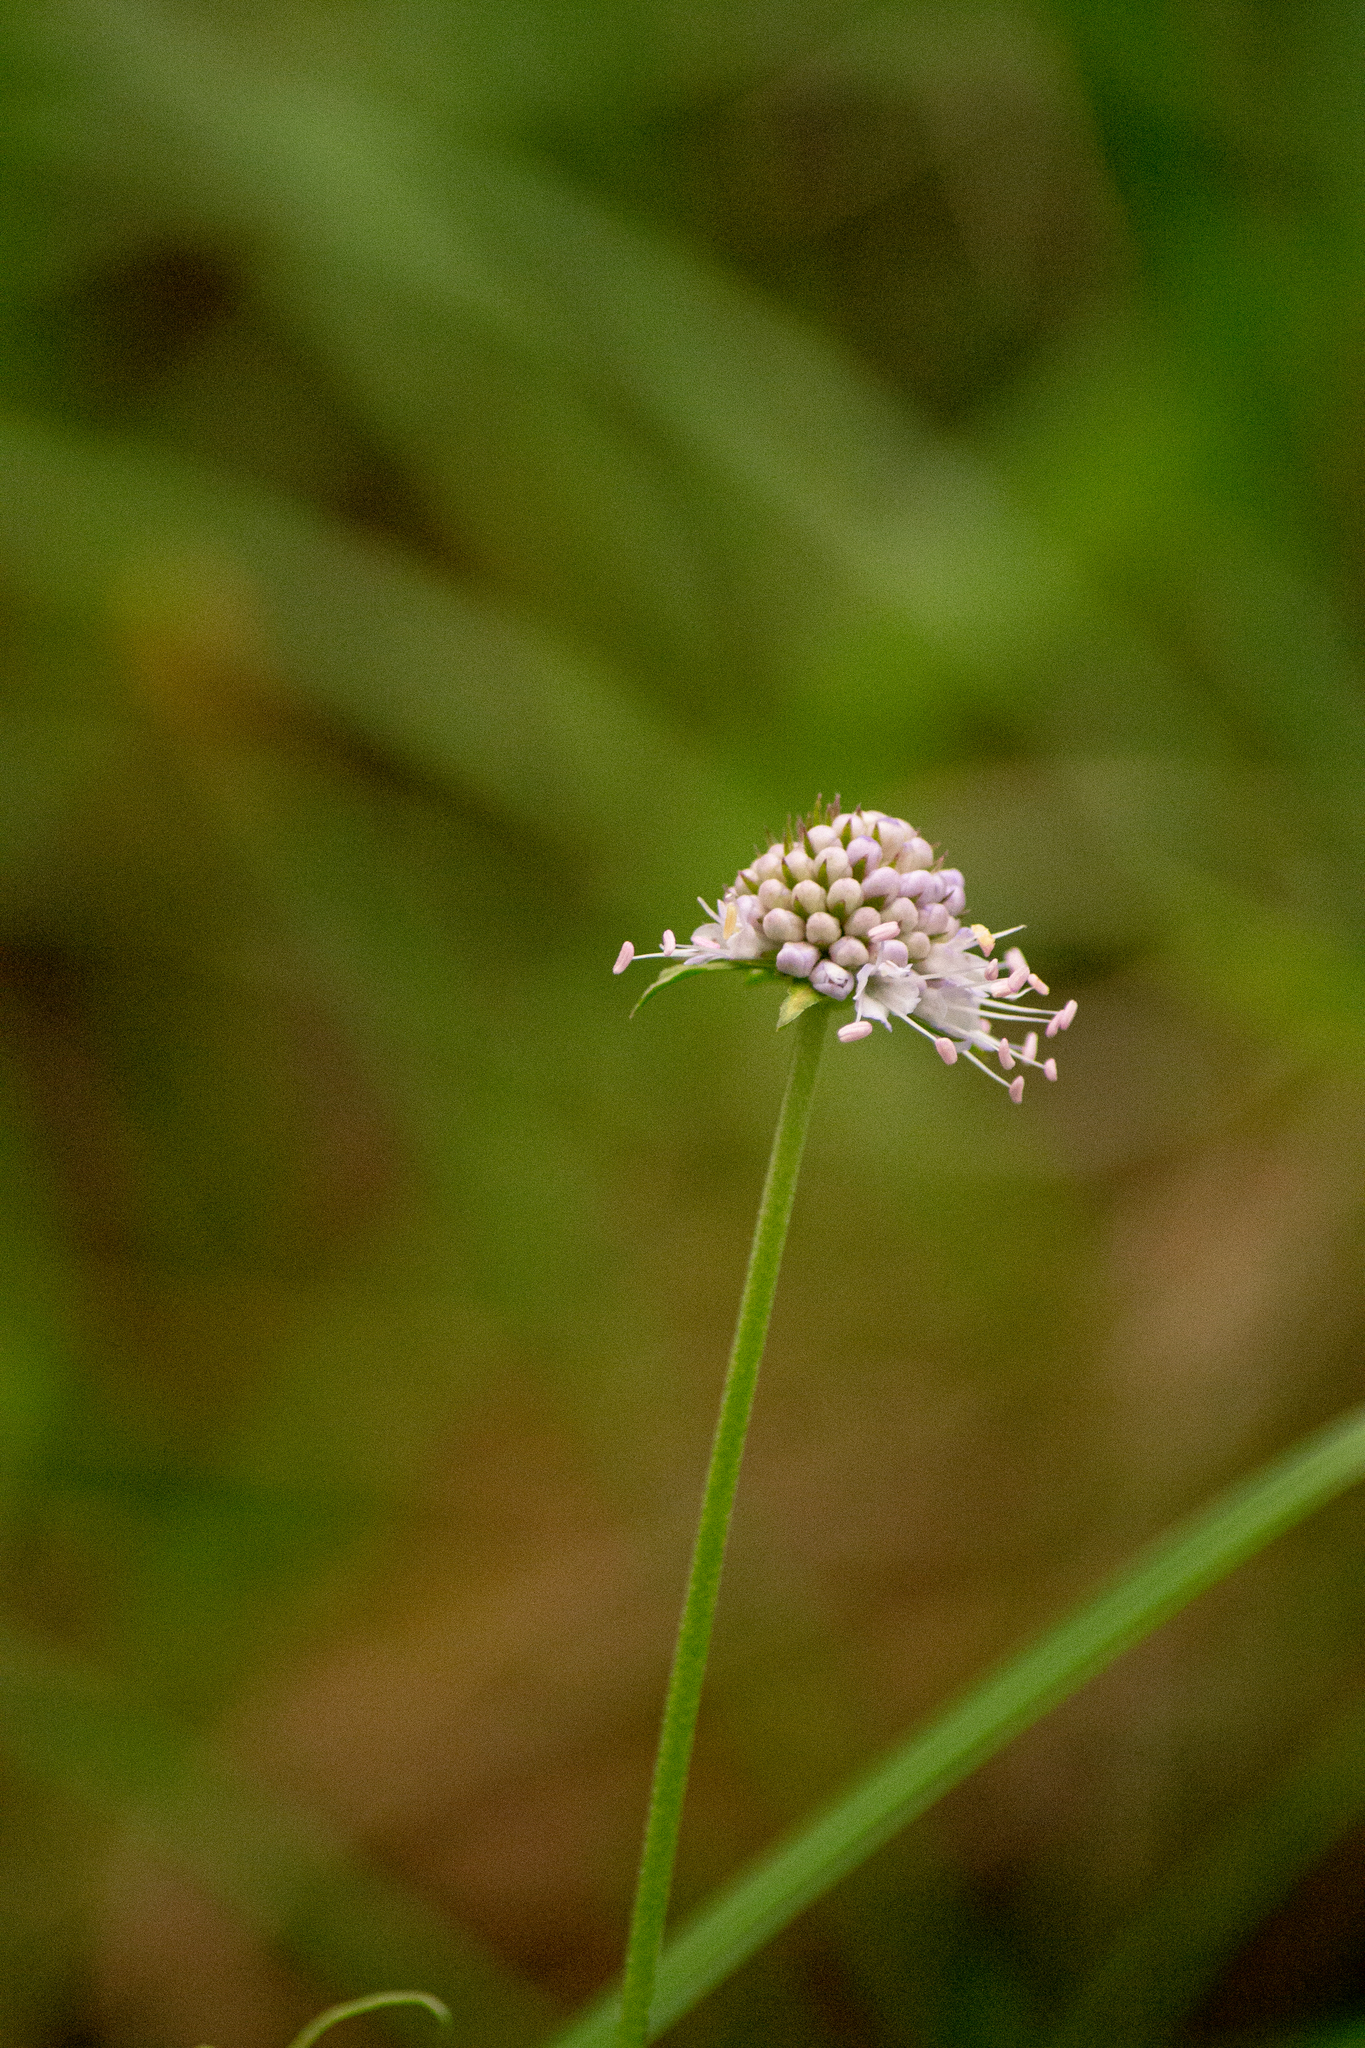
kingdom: Plantae
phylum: Tracheophyta
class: Magnoliopsida
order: Dipsacales
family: Caprifoliaceae
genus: Succisa
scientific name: Succisa pratensis
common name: Devil's-bit
